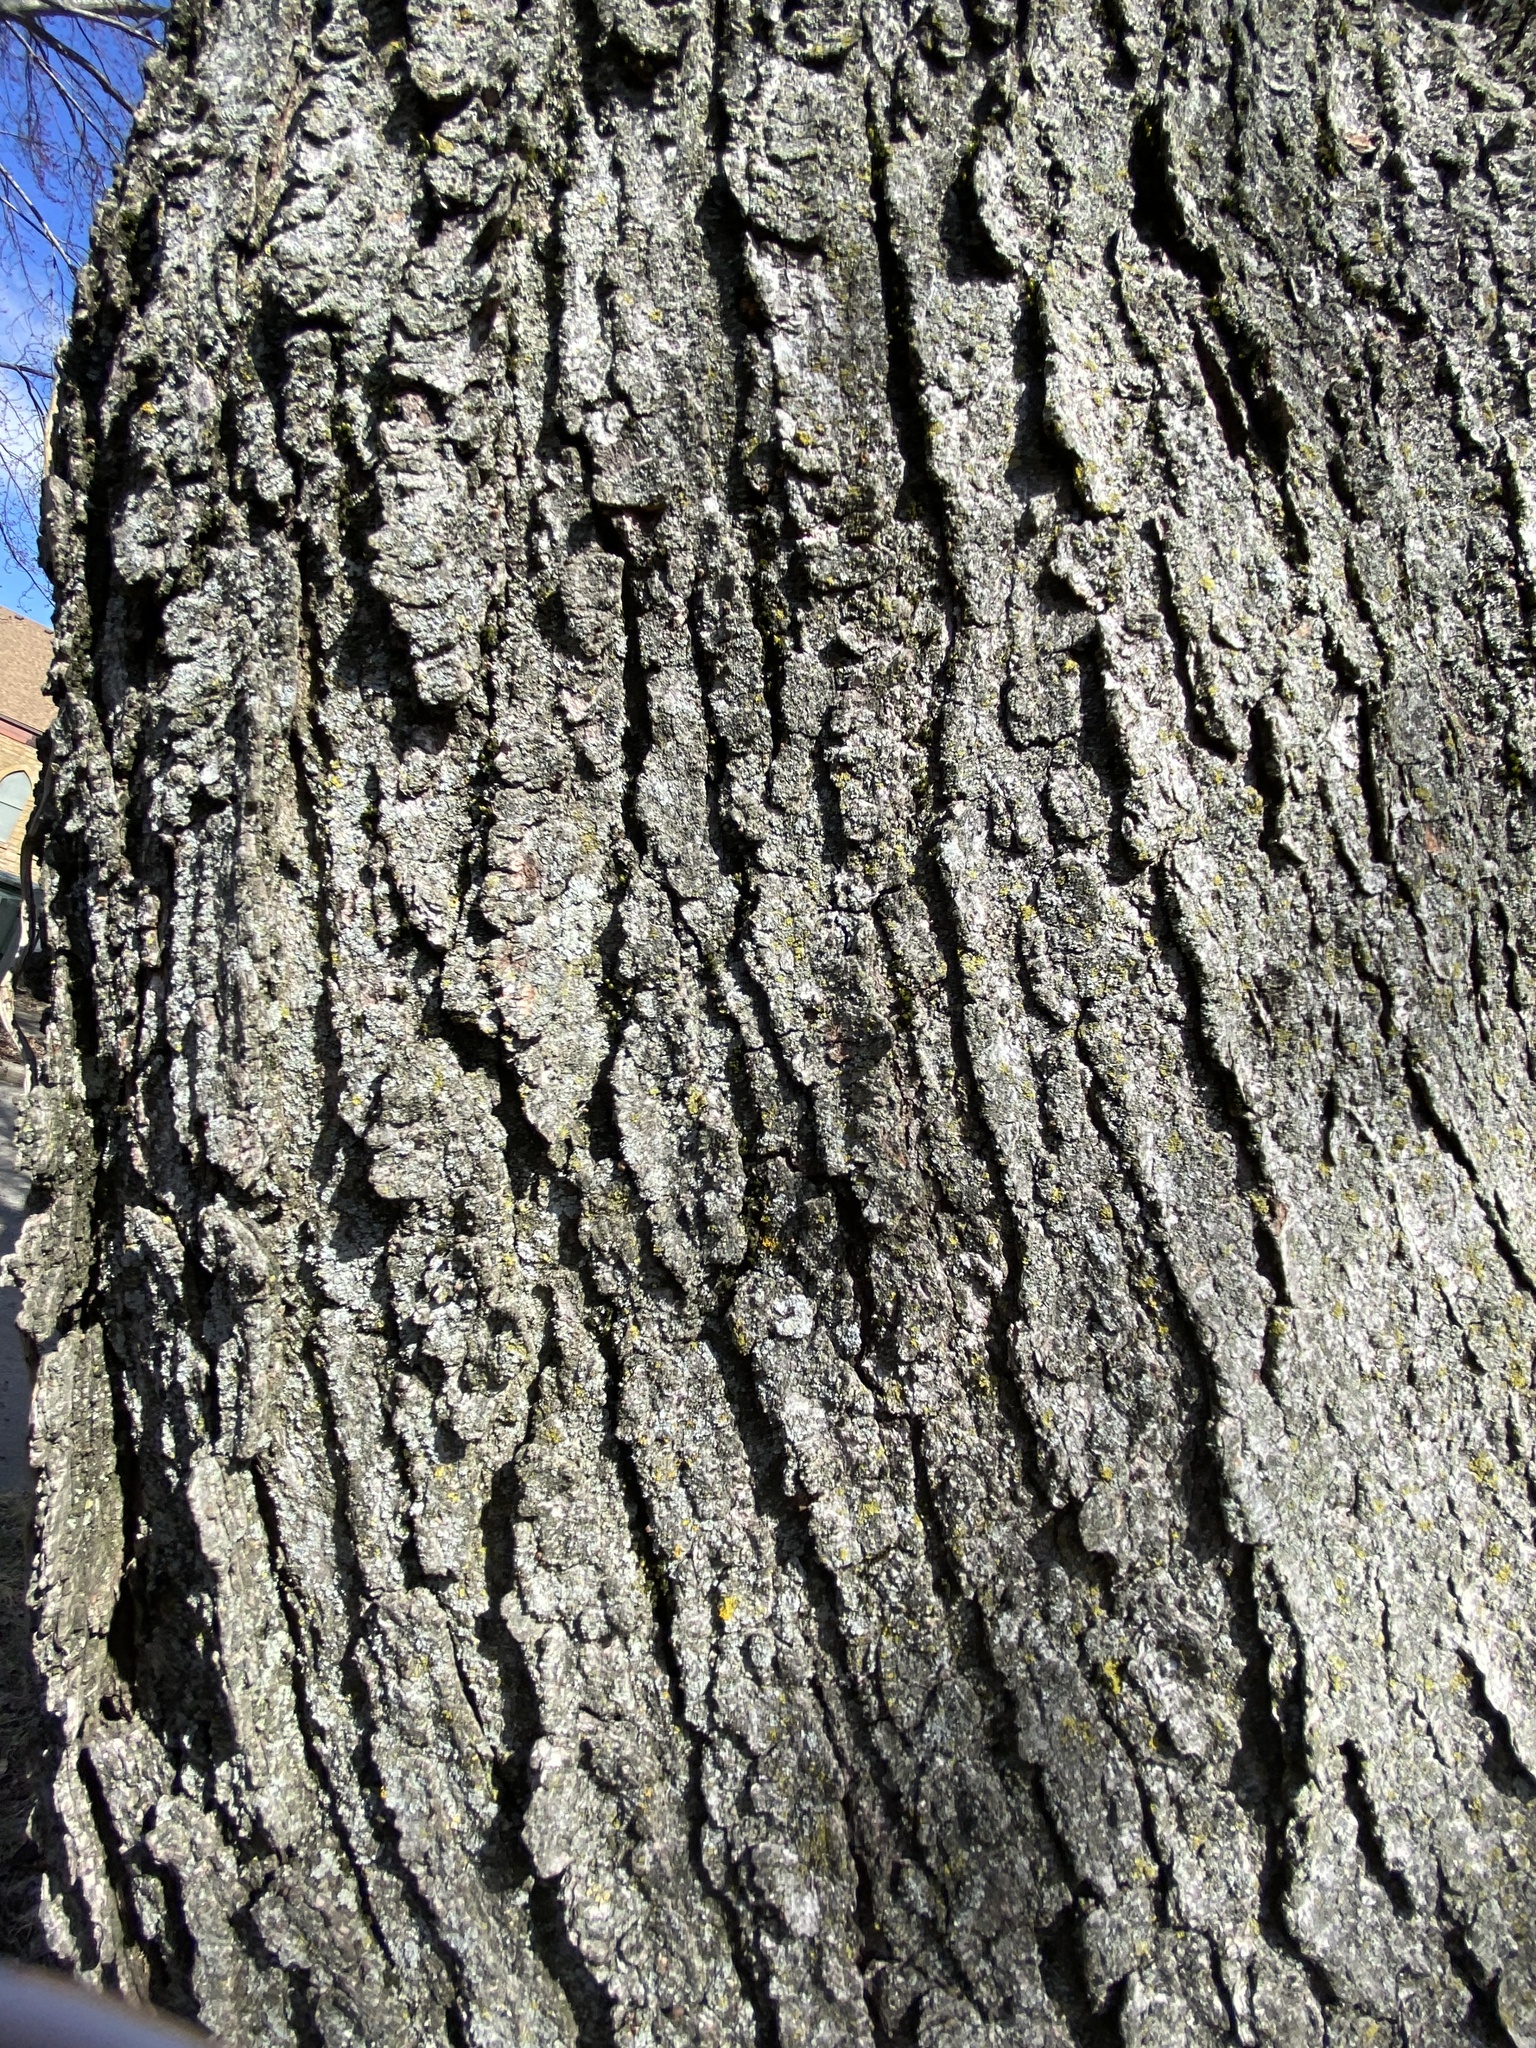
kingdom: Plantae
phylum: Tracheophyta
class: Magnoliopsida
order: Sapindales
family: Sapindaceae
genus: Acer
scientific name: Acer rubrum
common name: Red maple
